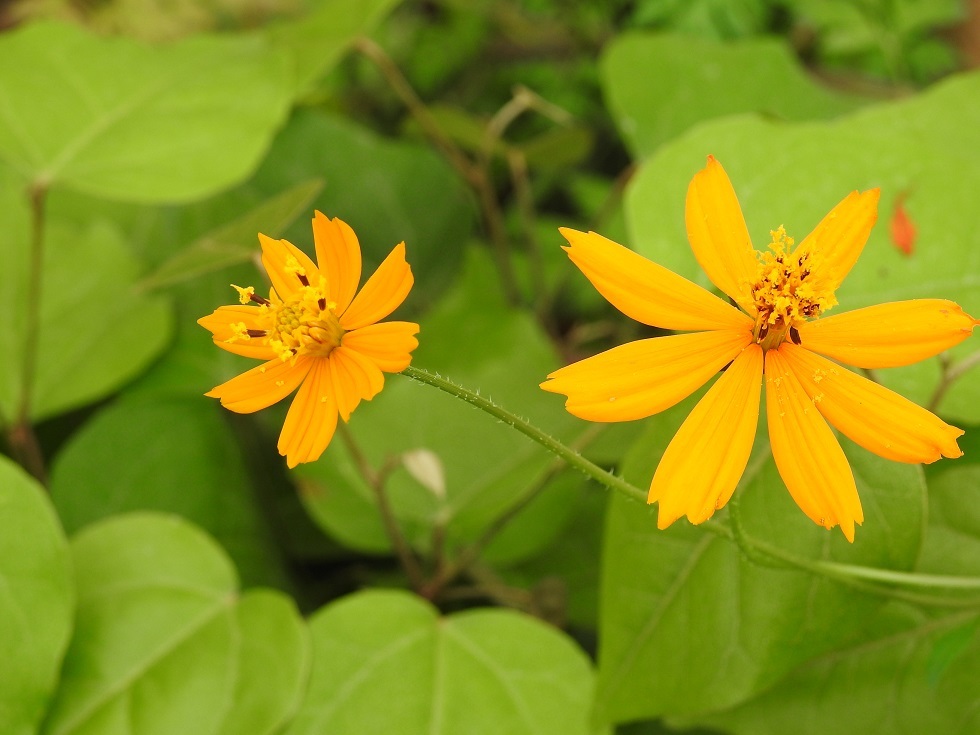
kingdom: Plantae
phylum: Tracheophyta
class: Magnoliopsida
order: Asterales
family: Asteraceae
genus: Cosmos
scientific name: Cosmos sulphureus
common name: Sulphur cosmos
